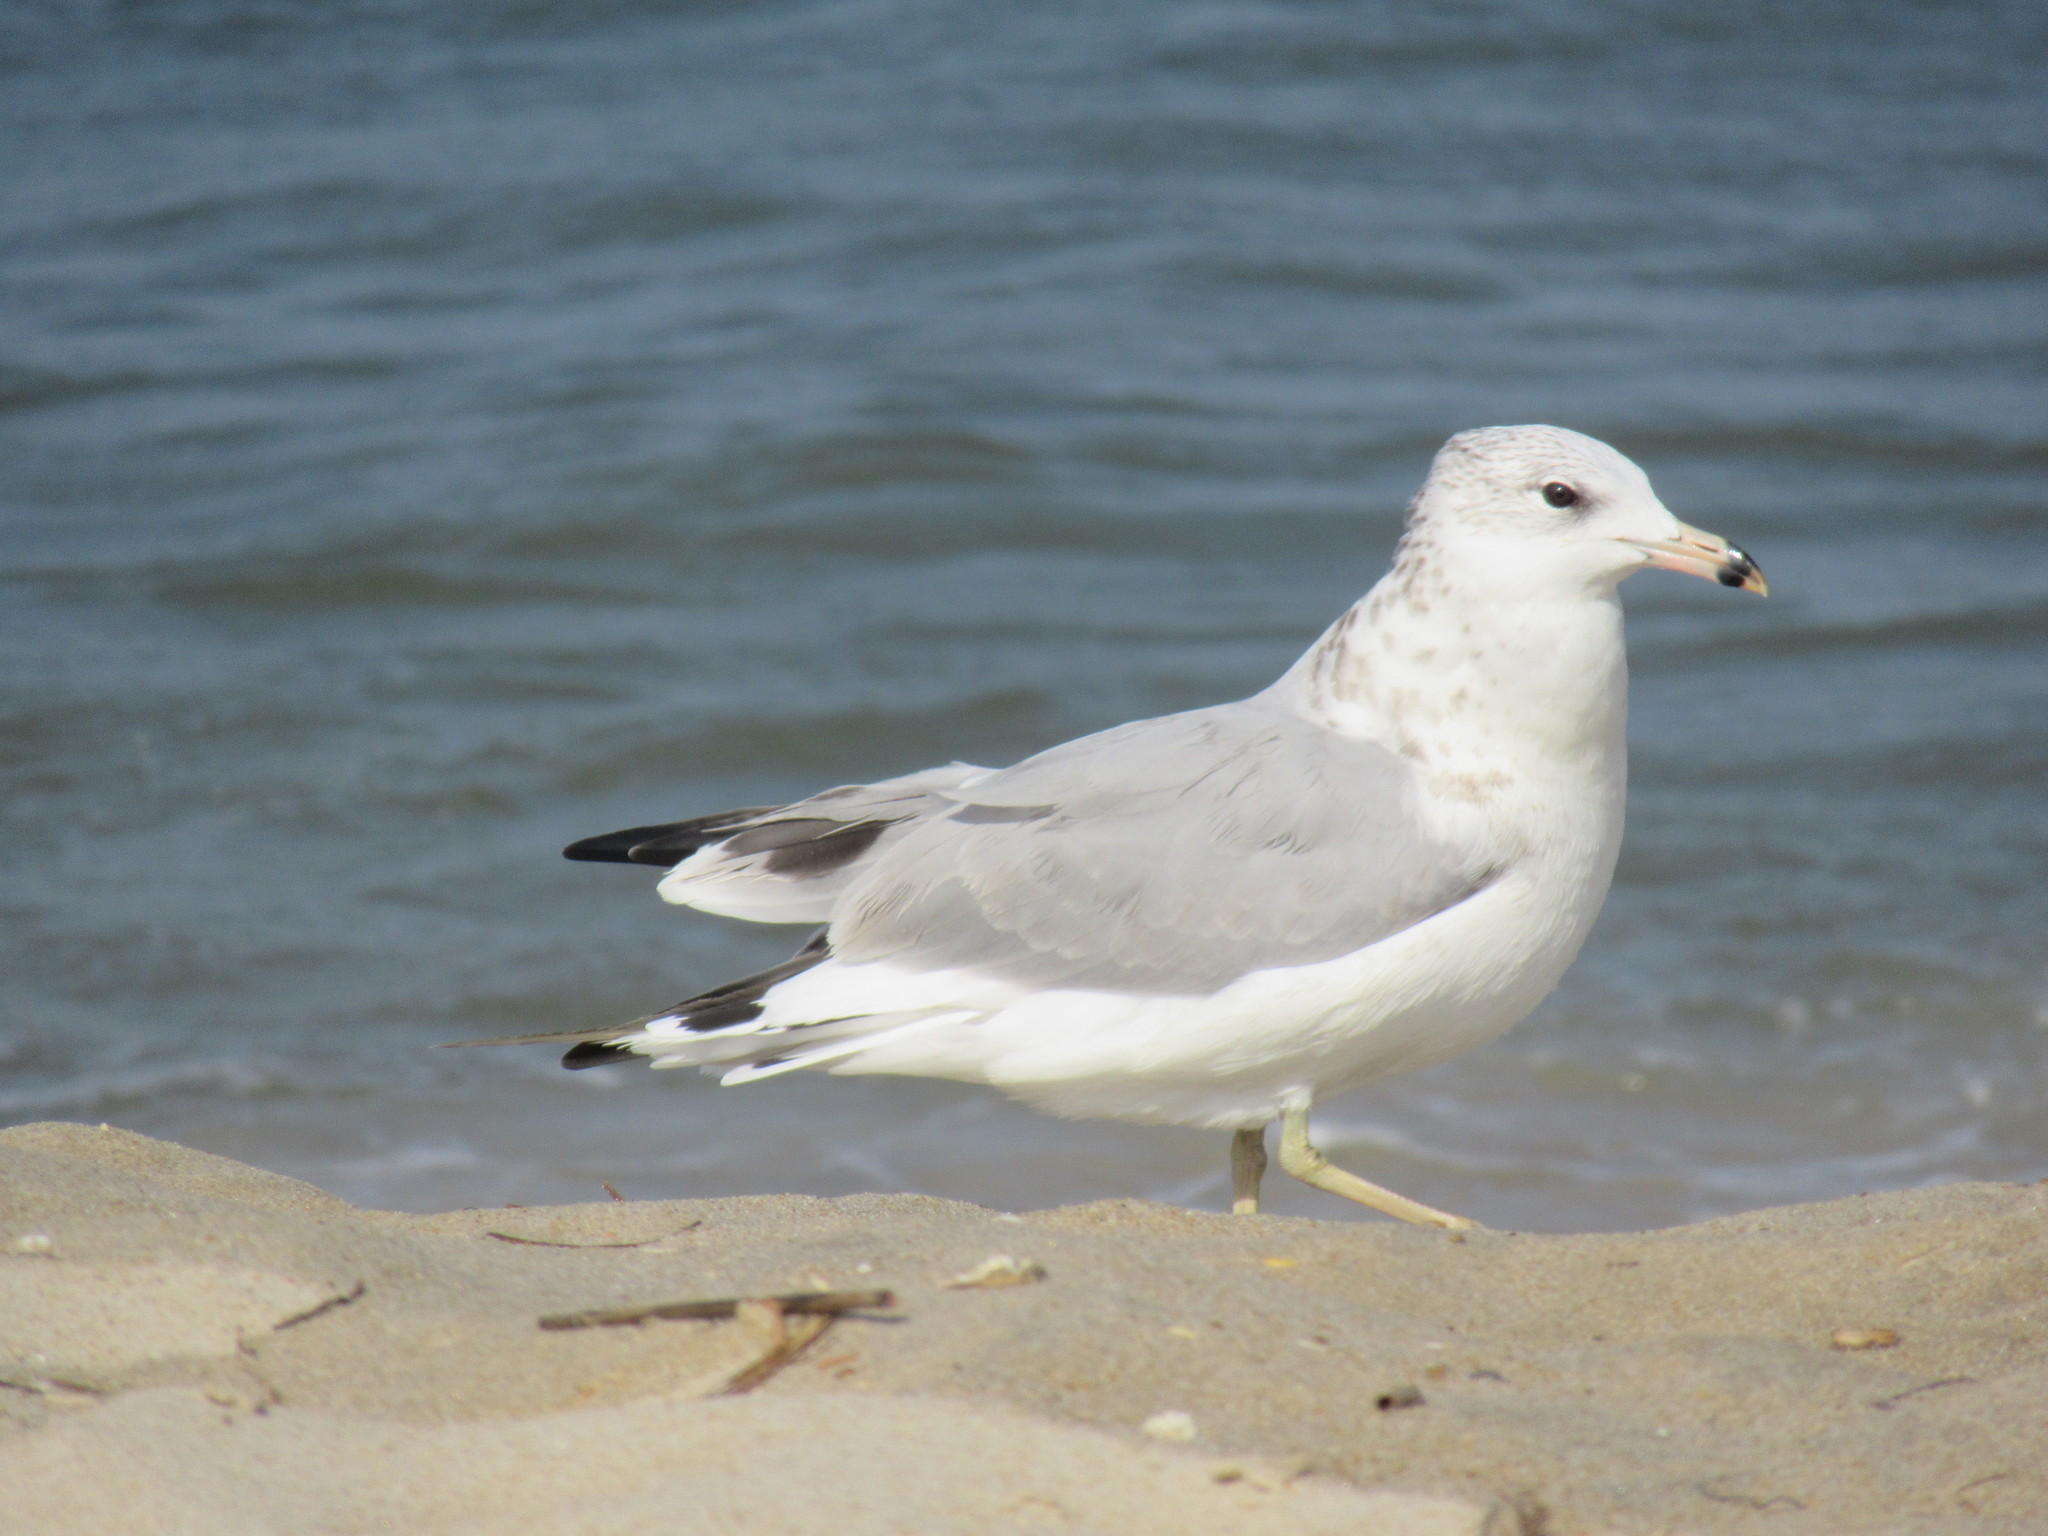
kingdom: Animalia
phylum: Chordata
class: Aves
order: Charadriiformes
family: Laridae
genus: Larus
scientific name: Larus delawarensis
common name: Ring-billed gull
